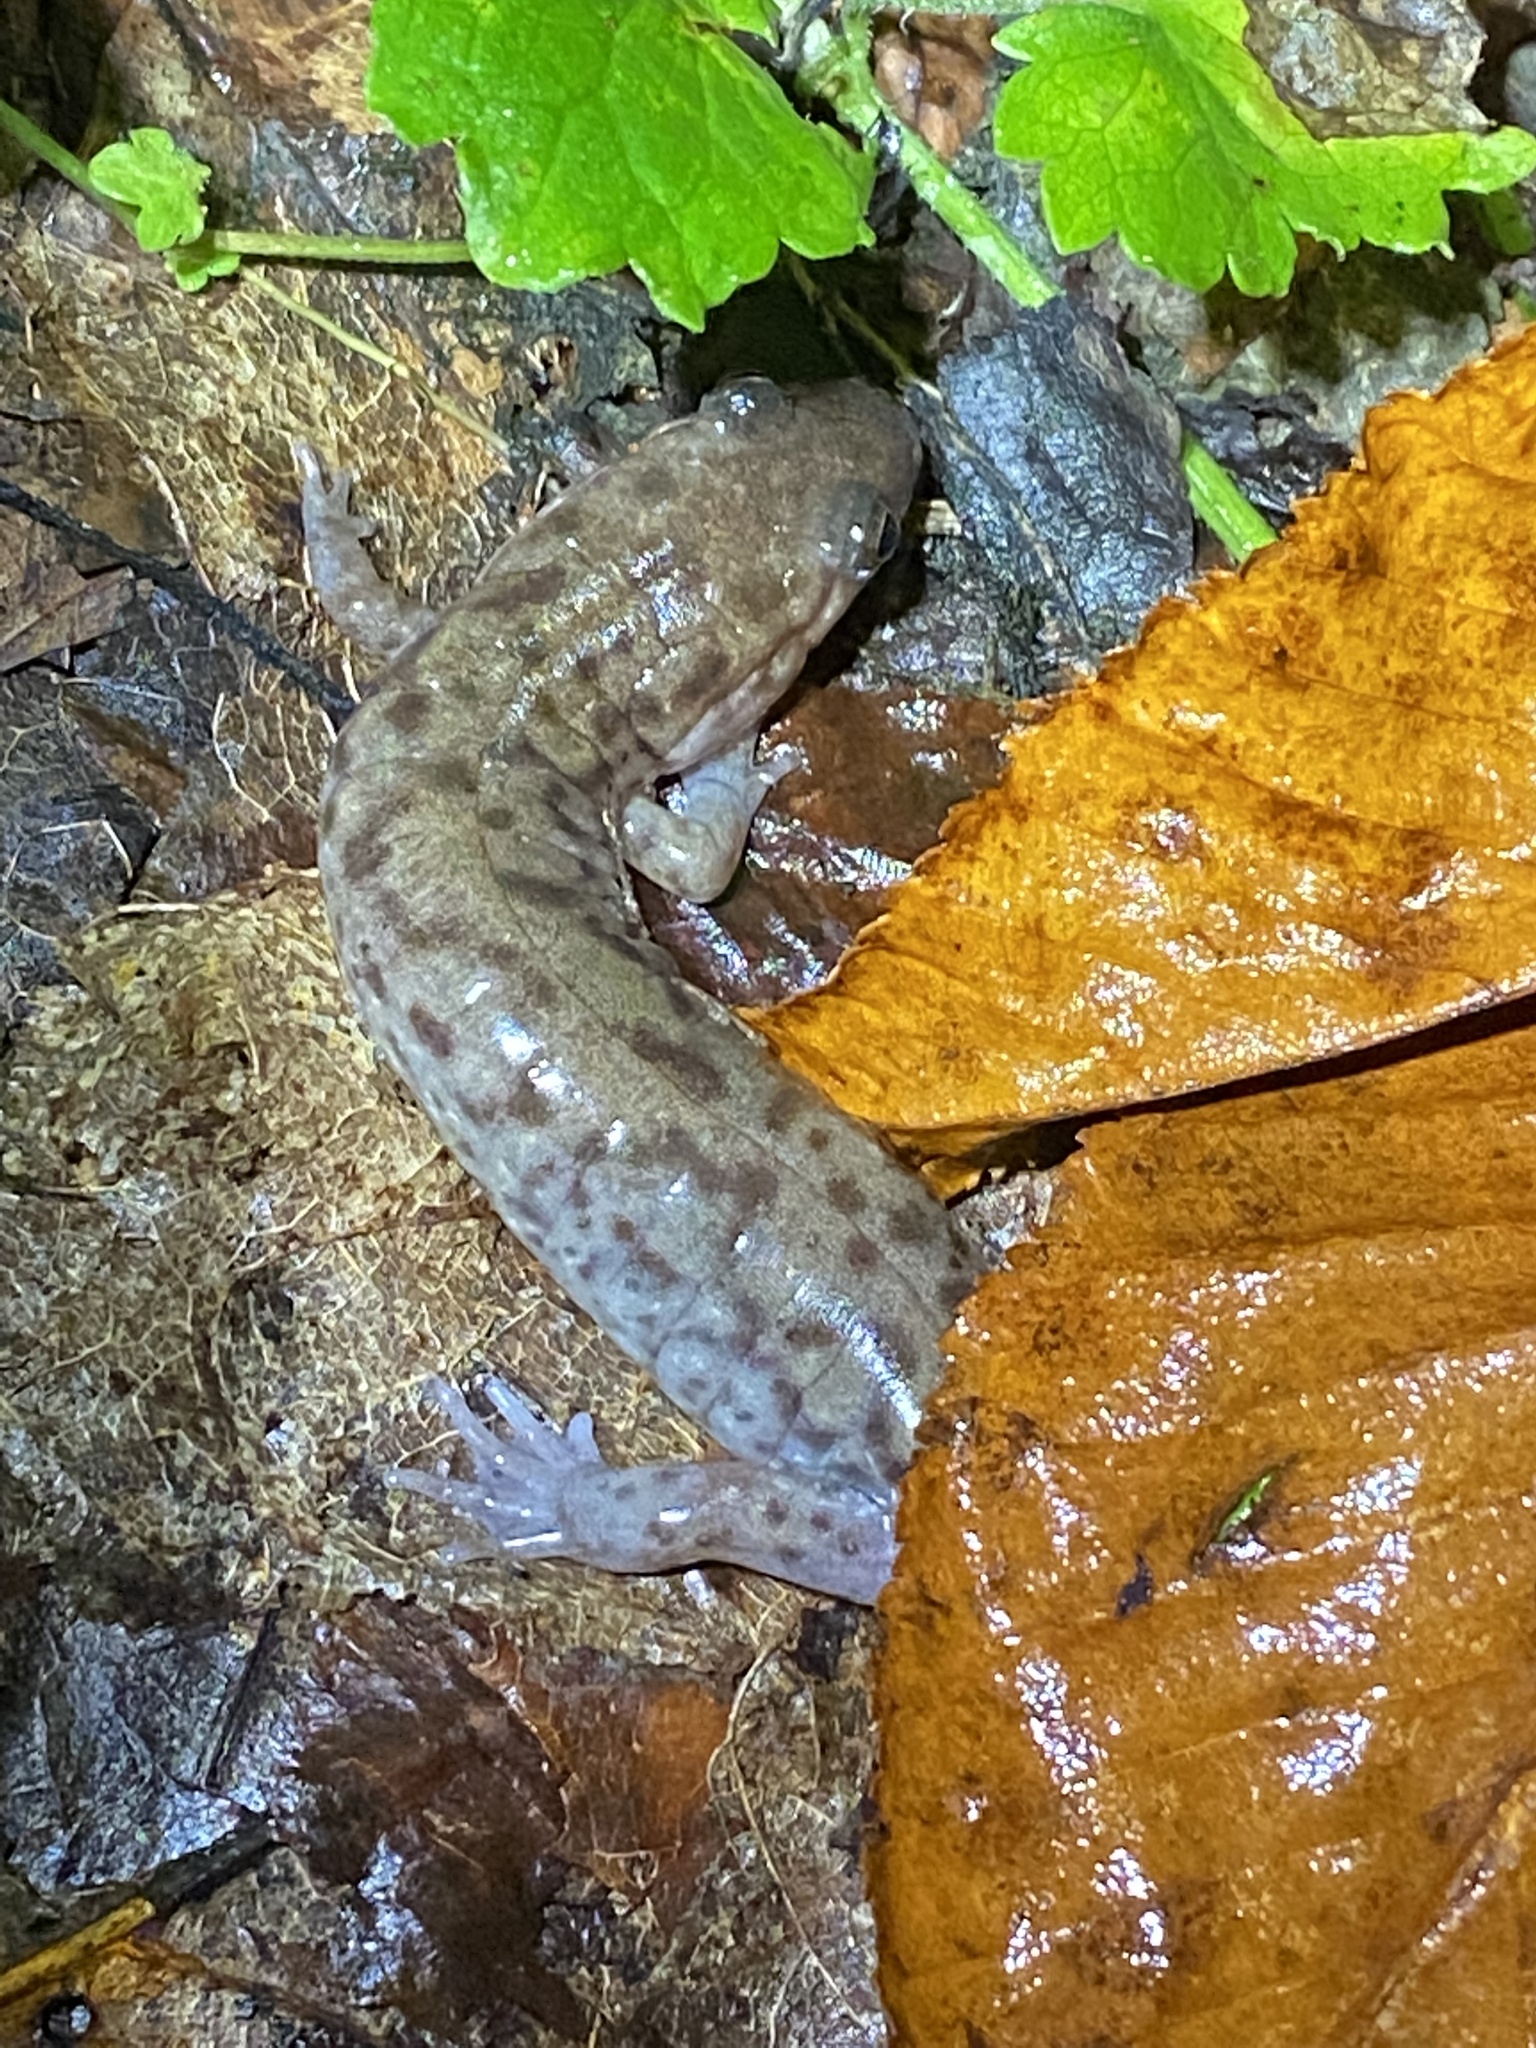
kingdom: Animalia
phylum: Chordata
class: Amphibia
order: Caudata
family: Plethodontidae
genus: Desmognathus
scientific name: Desmognathus monticola
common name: Seal salamander
